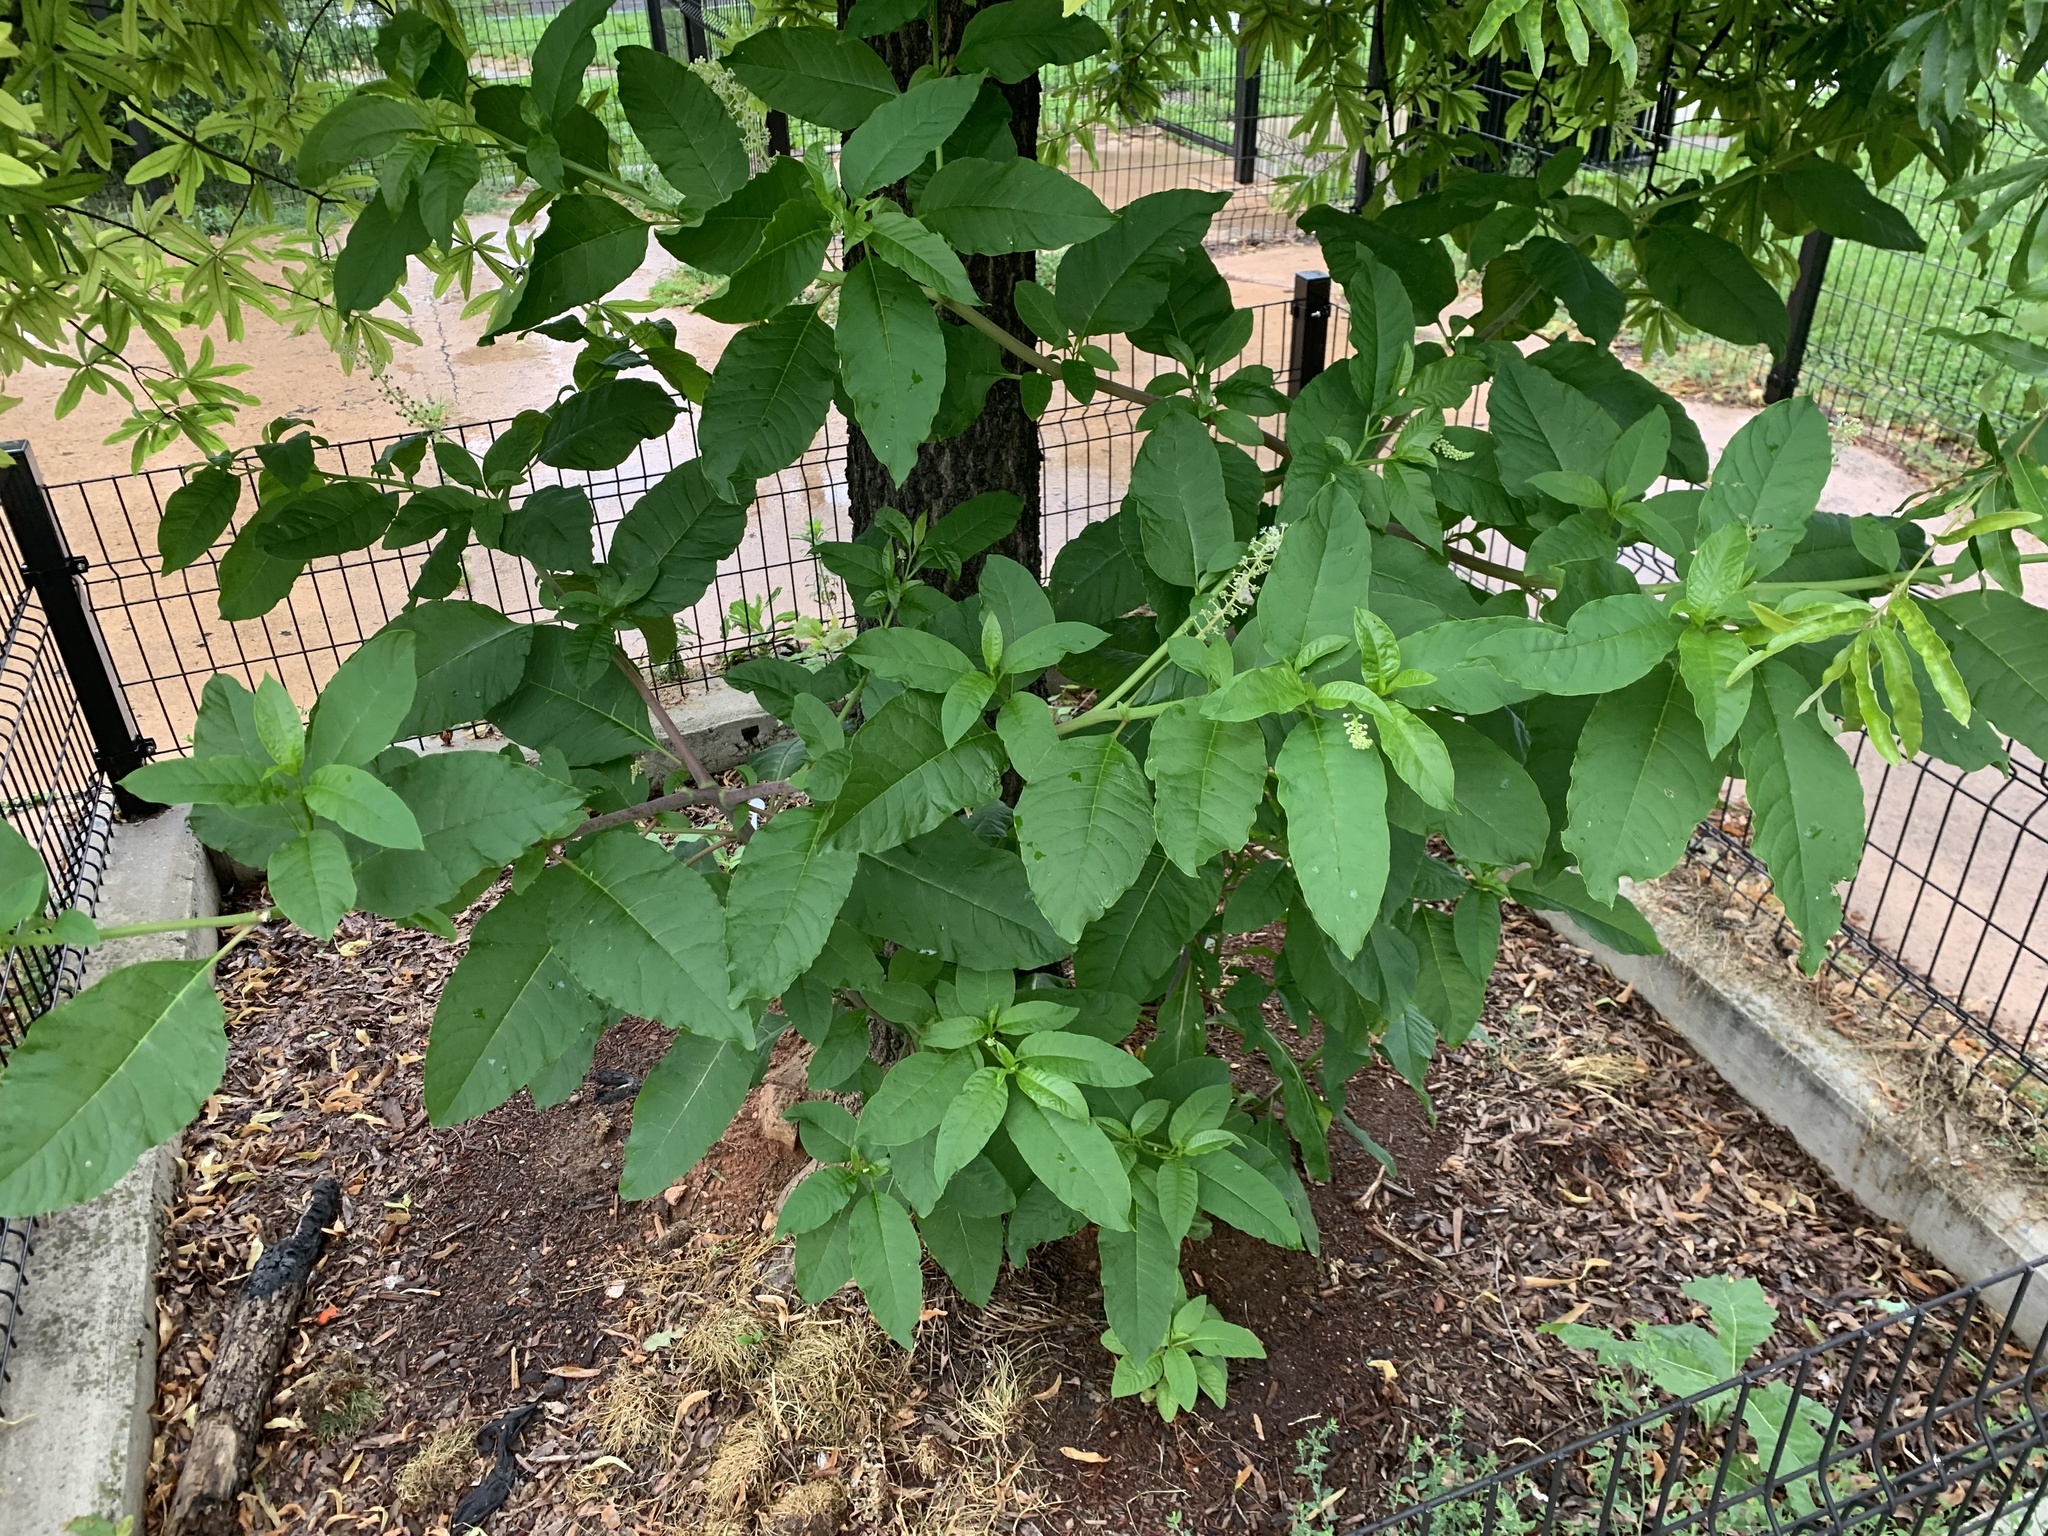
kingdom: Plantae
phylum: Tracheophyta
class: Magnoliopsida
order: Caryophyllales
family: Phytolaccaceae
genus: Phytolacca
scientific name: Phytolacca americana
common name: American pokeweed
